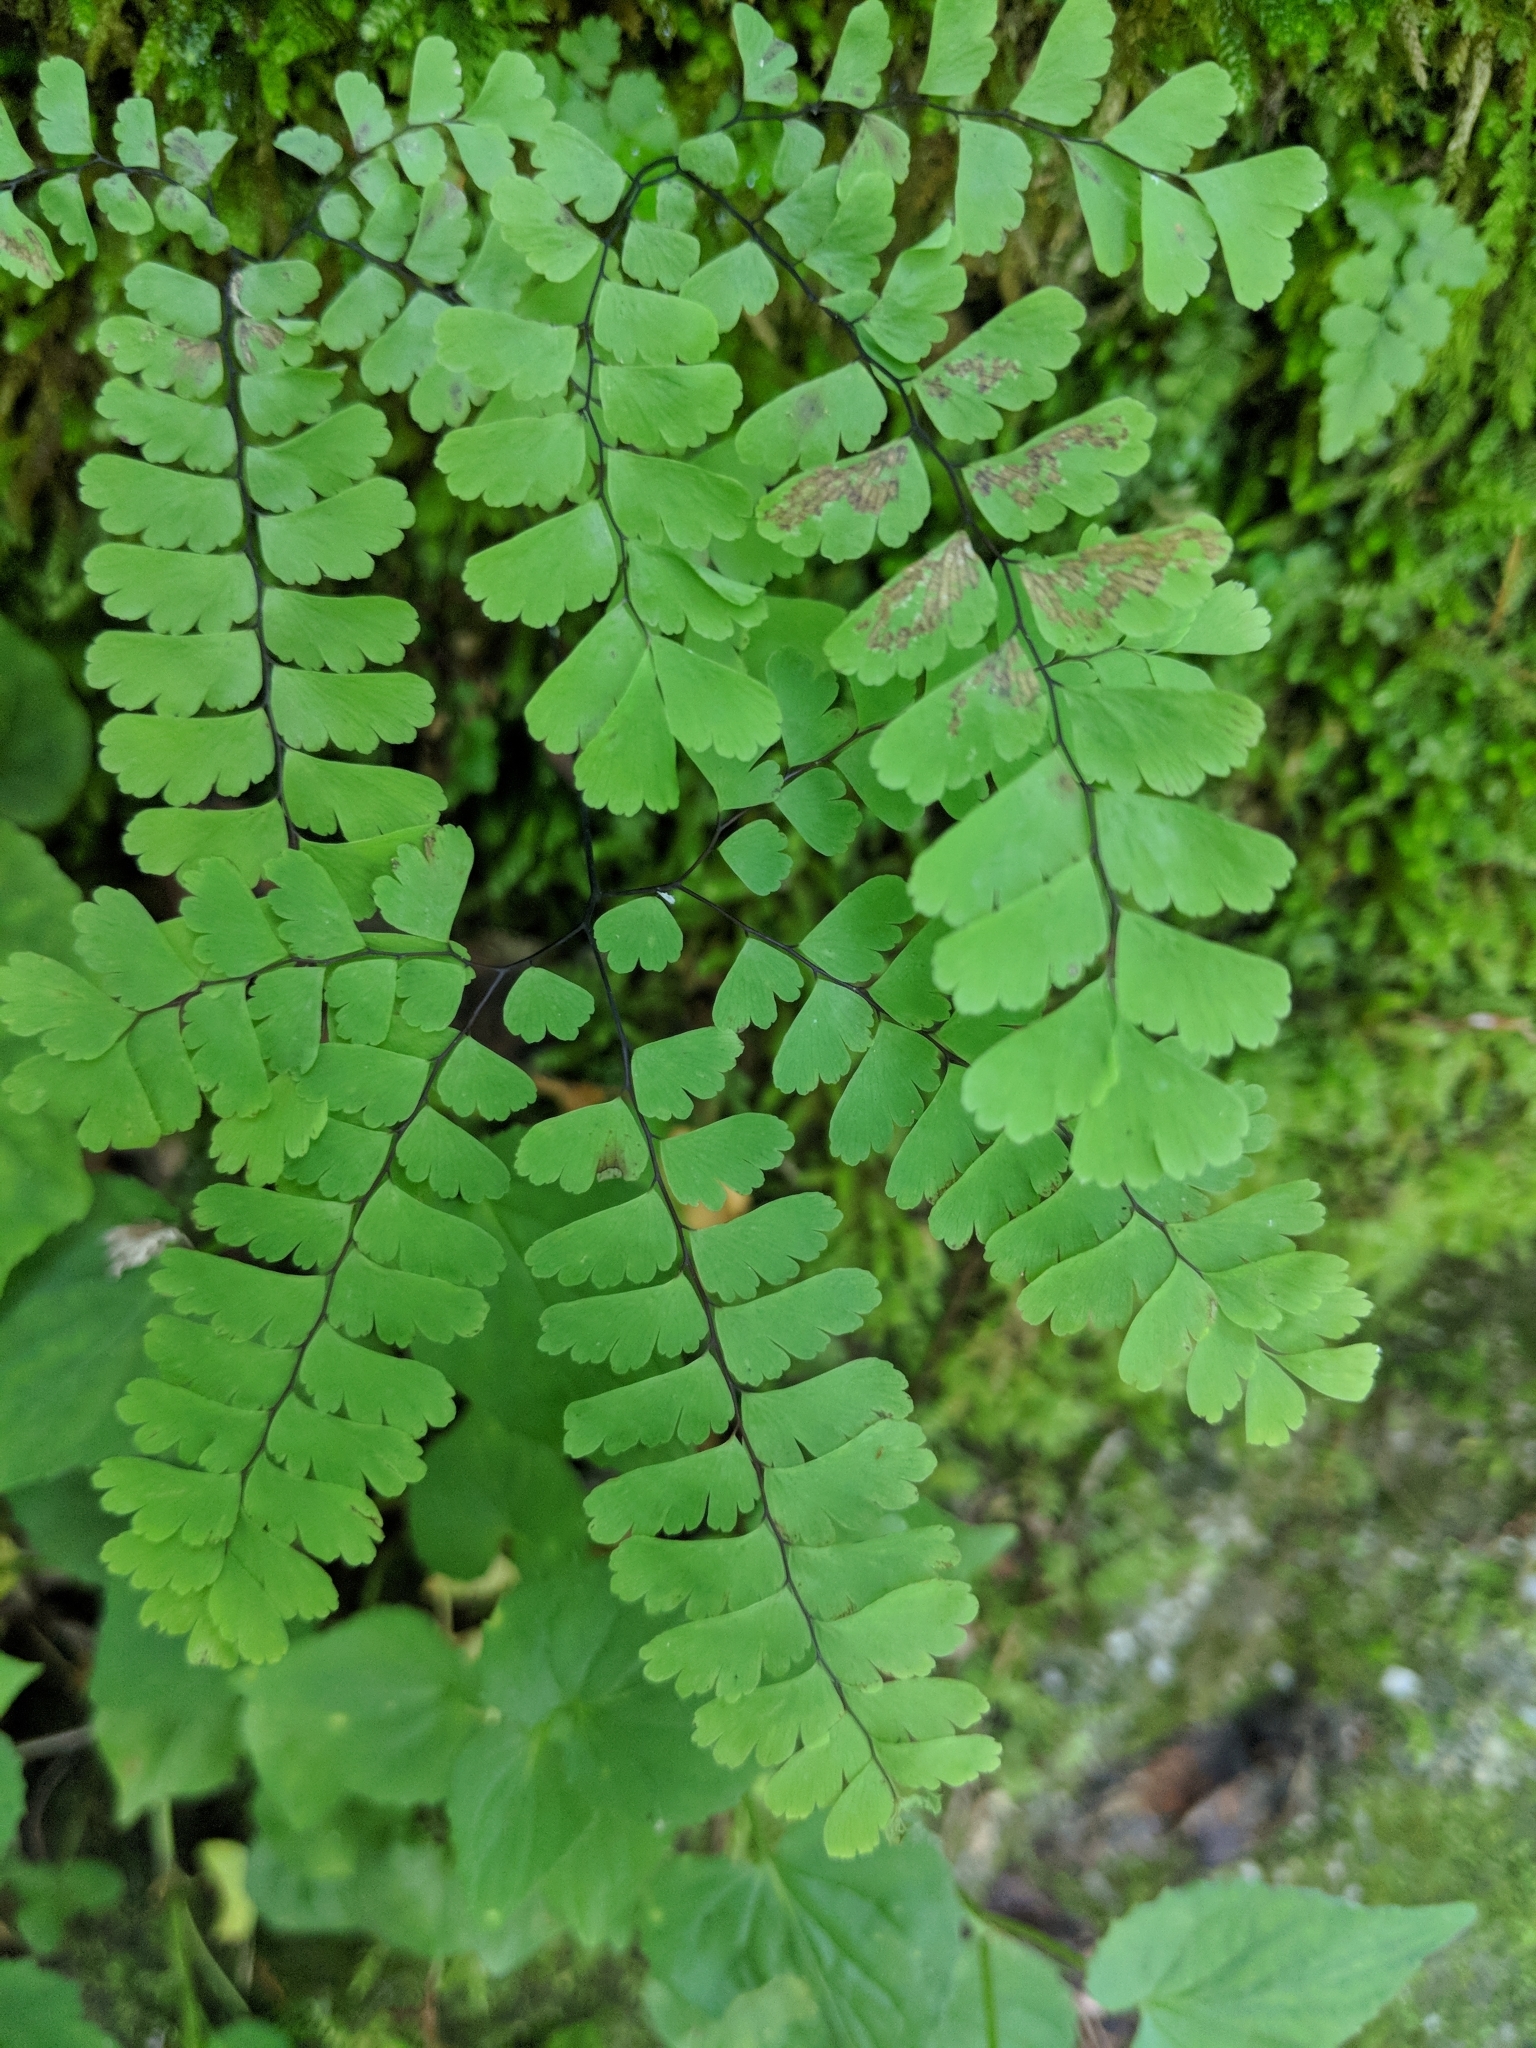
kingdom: Plantae
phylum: Tracheophyta
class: Polypodiopsida
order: Polypodiales
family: Pteridaceae
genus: Adiantum
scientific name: Adiantum pedatum
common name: Five-finger fern
